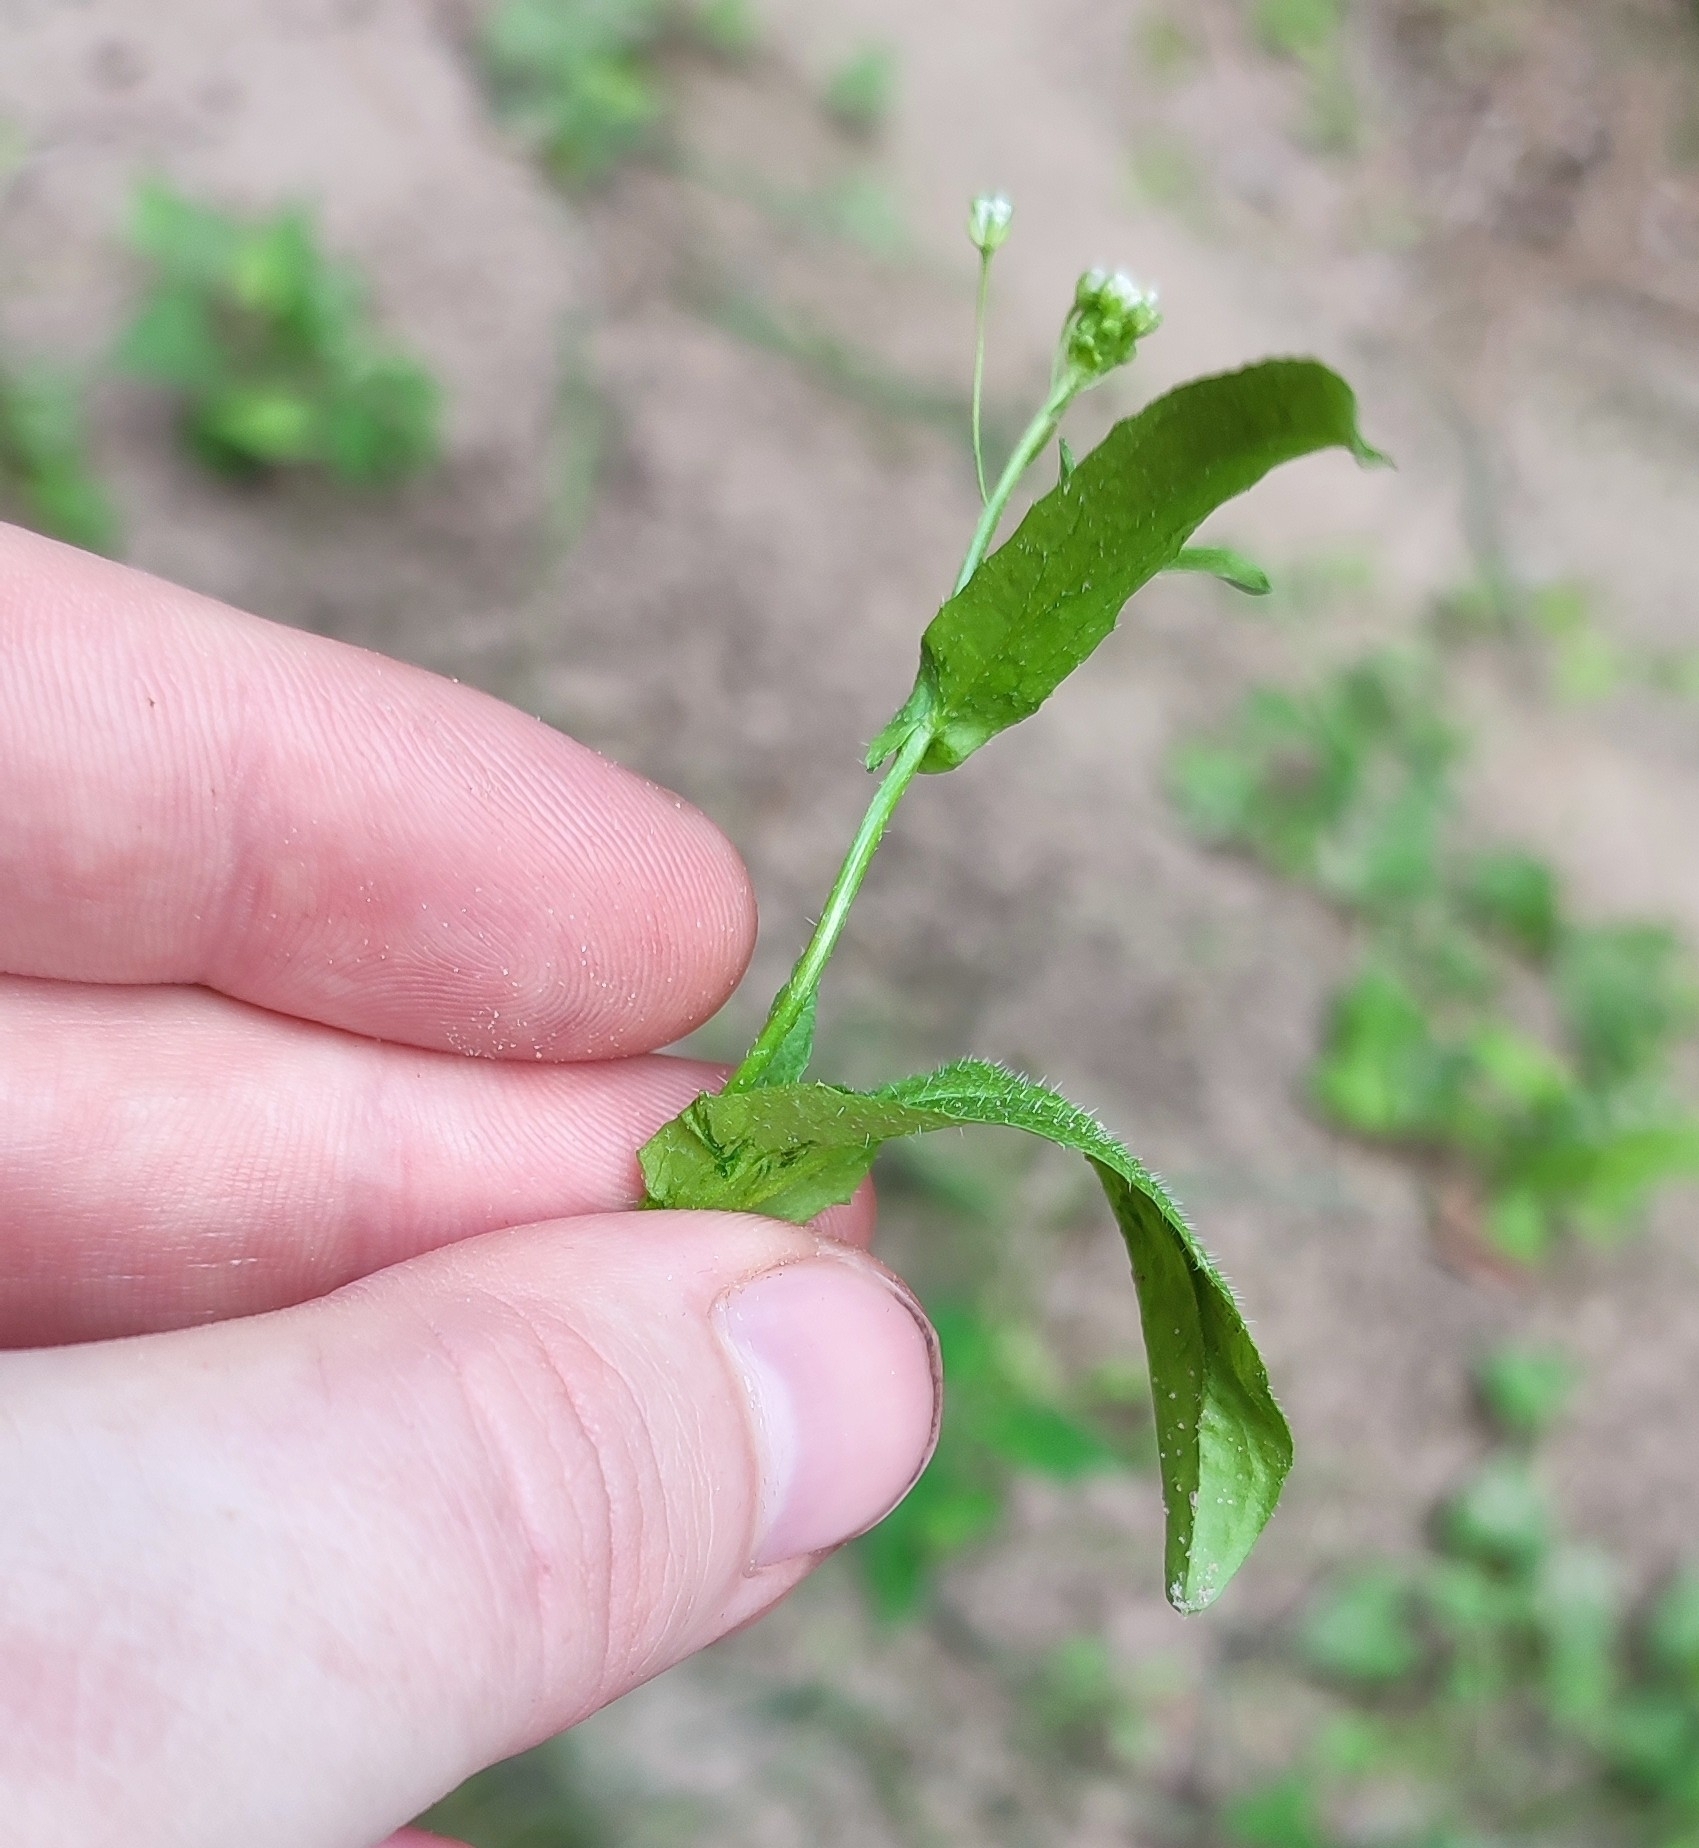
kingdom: Plantae
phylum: Tracheophyta
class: Magnoliopsida
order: Brassicales
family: Brassicaceae
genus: Catolobus
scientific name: Catolobus pendulus
